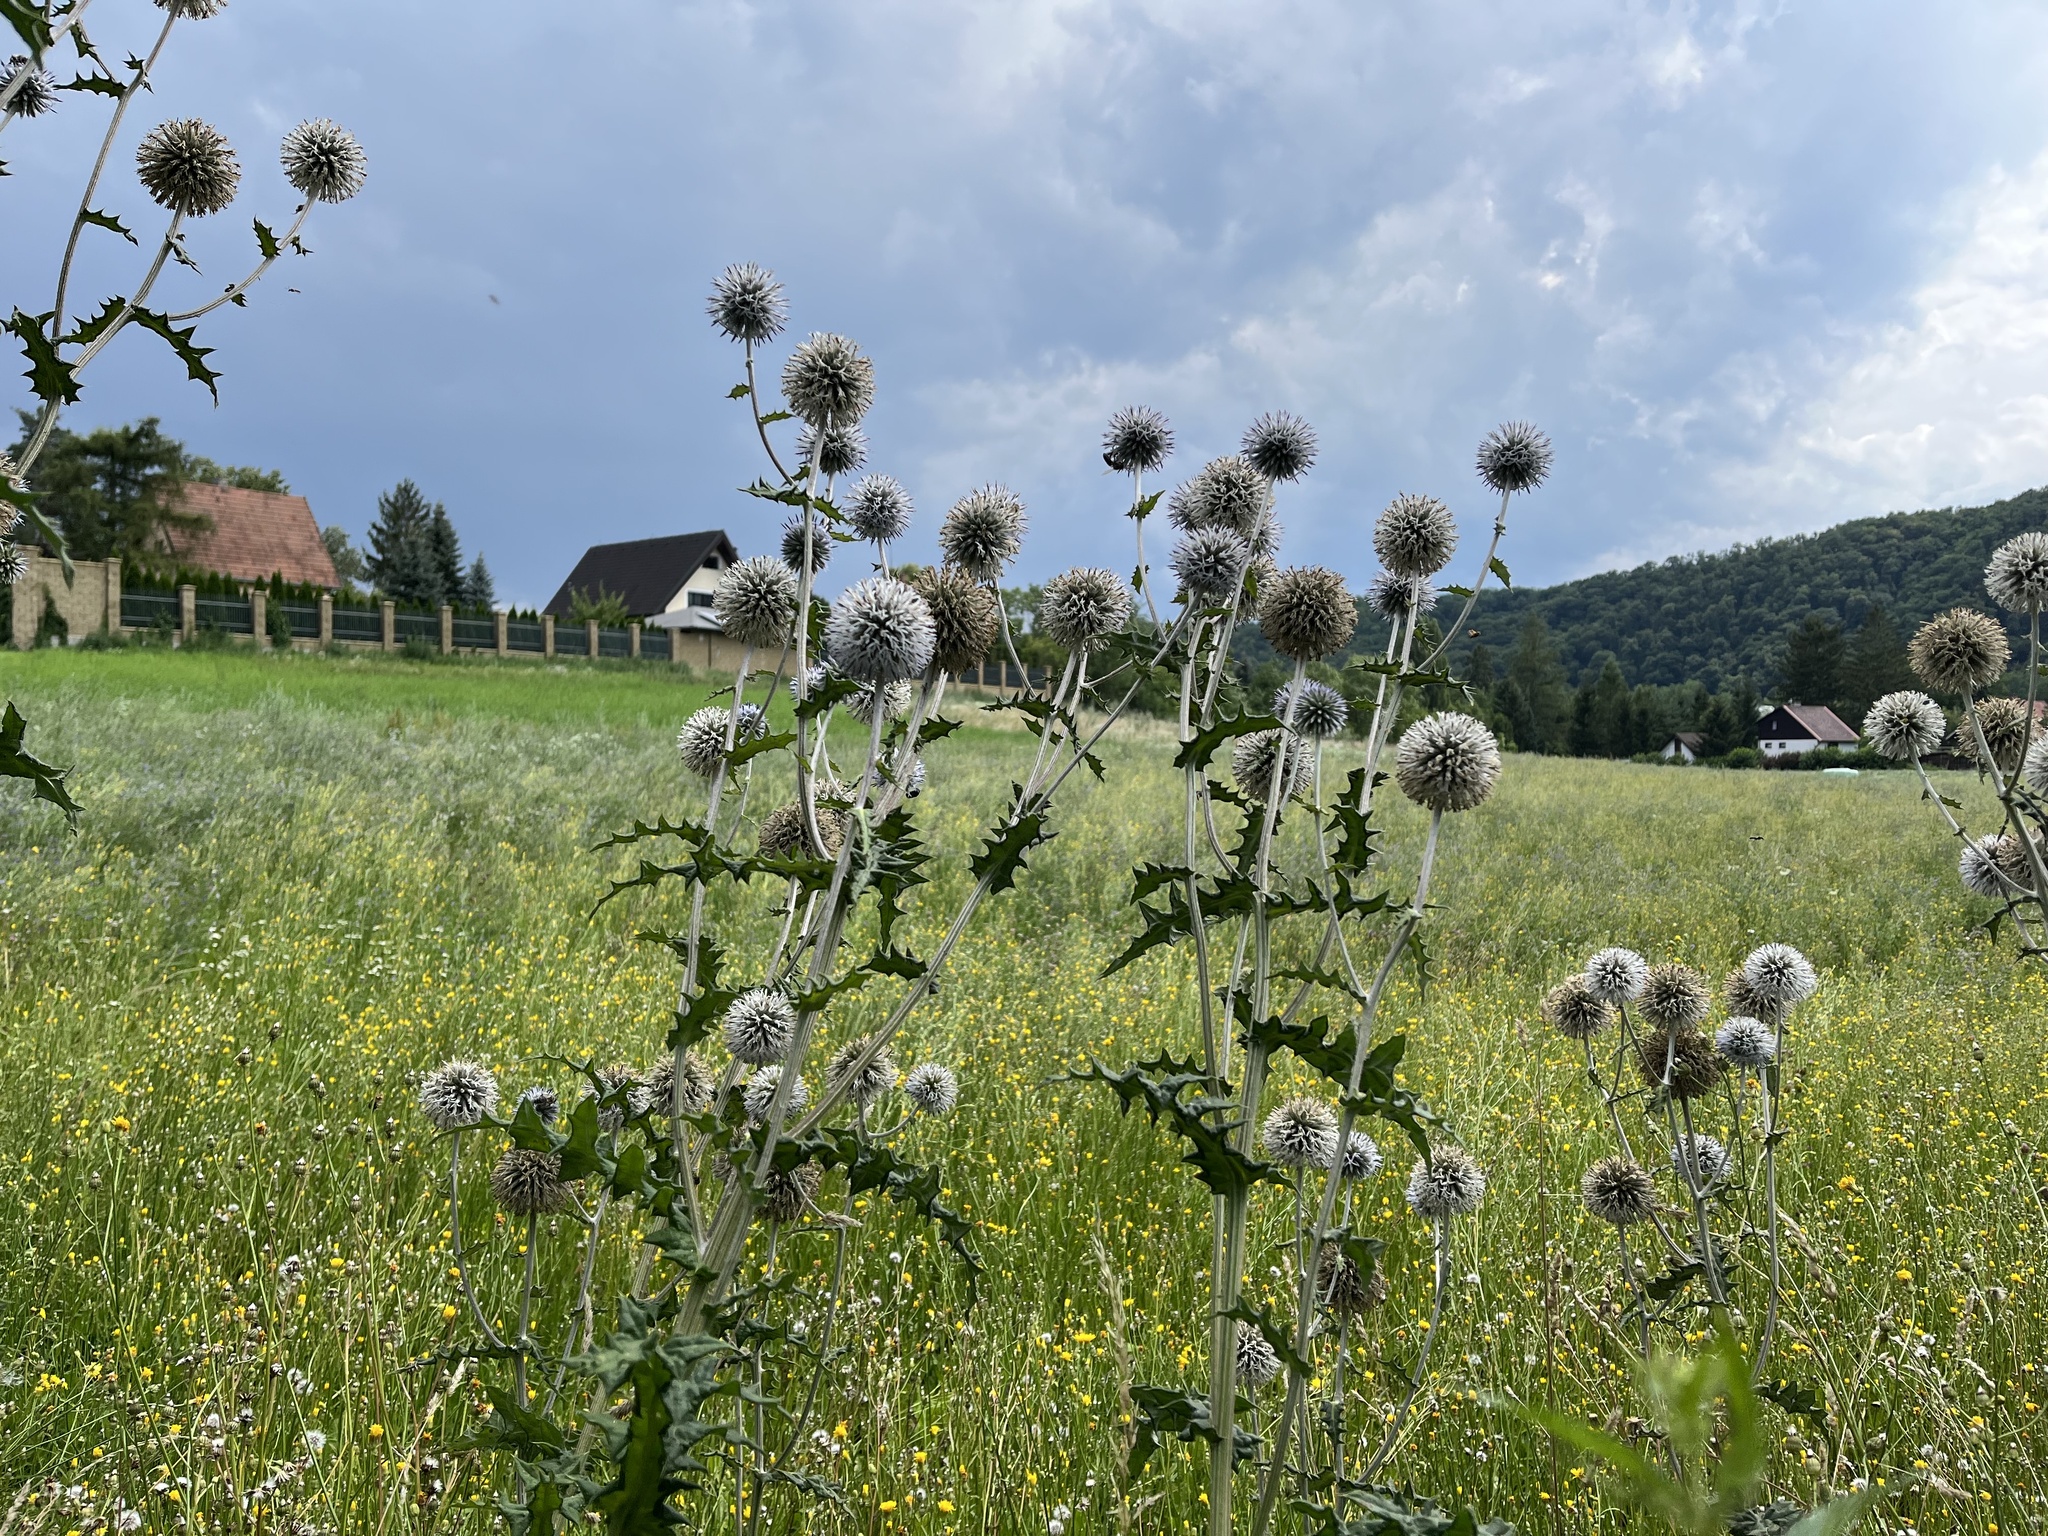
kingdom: Plantae
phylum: Tracheophyta
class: Magnoliopsida
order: Asterales
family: Asteraceae
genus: Echinops
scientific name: Echinops sphaerocephalus
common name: Glandular globe-thistle
